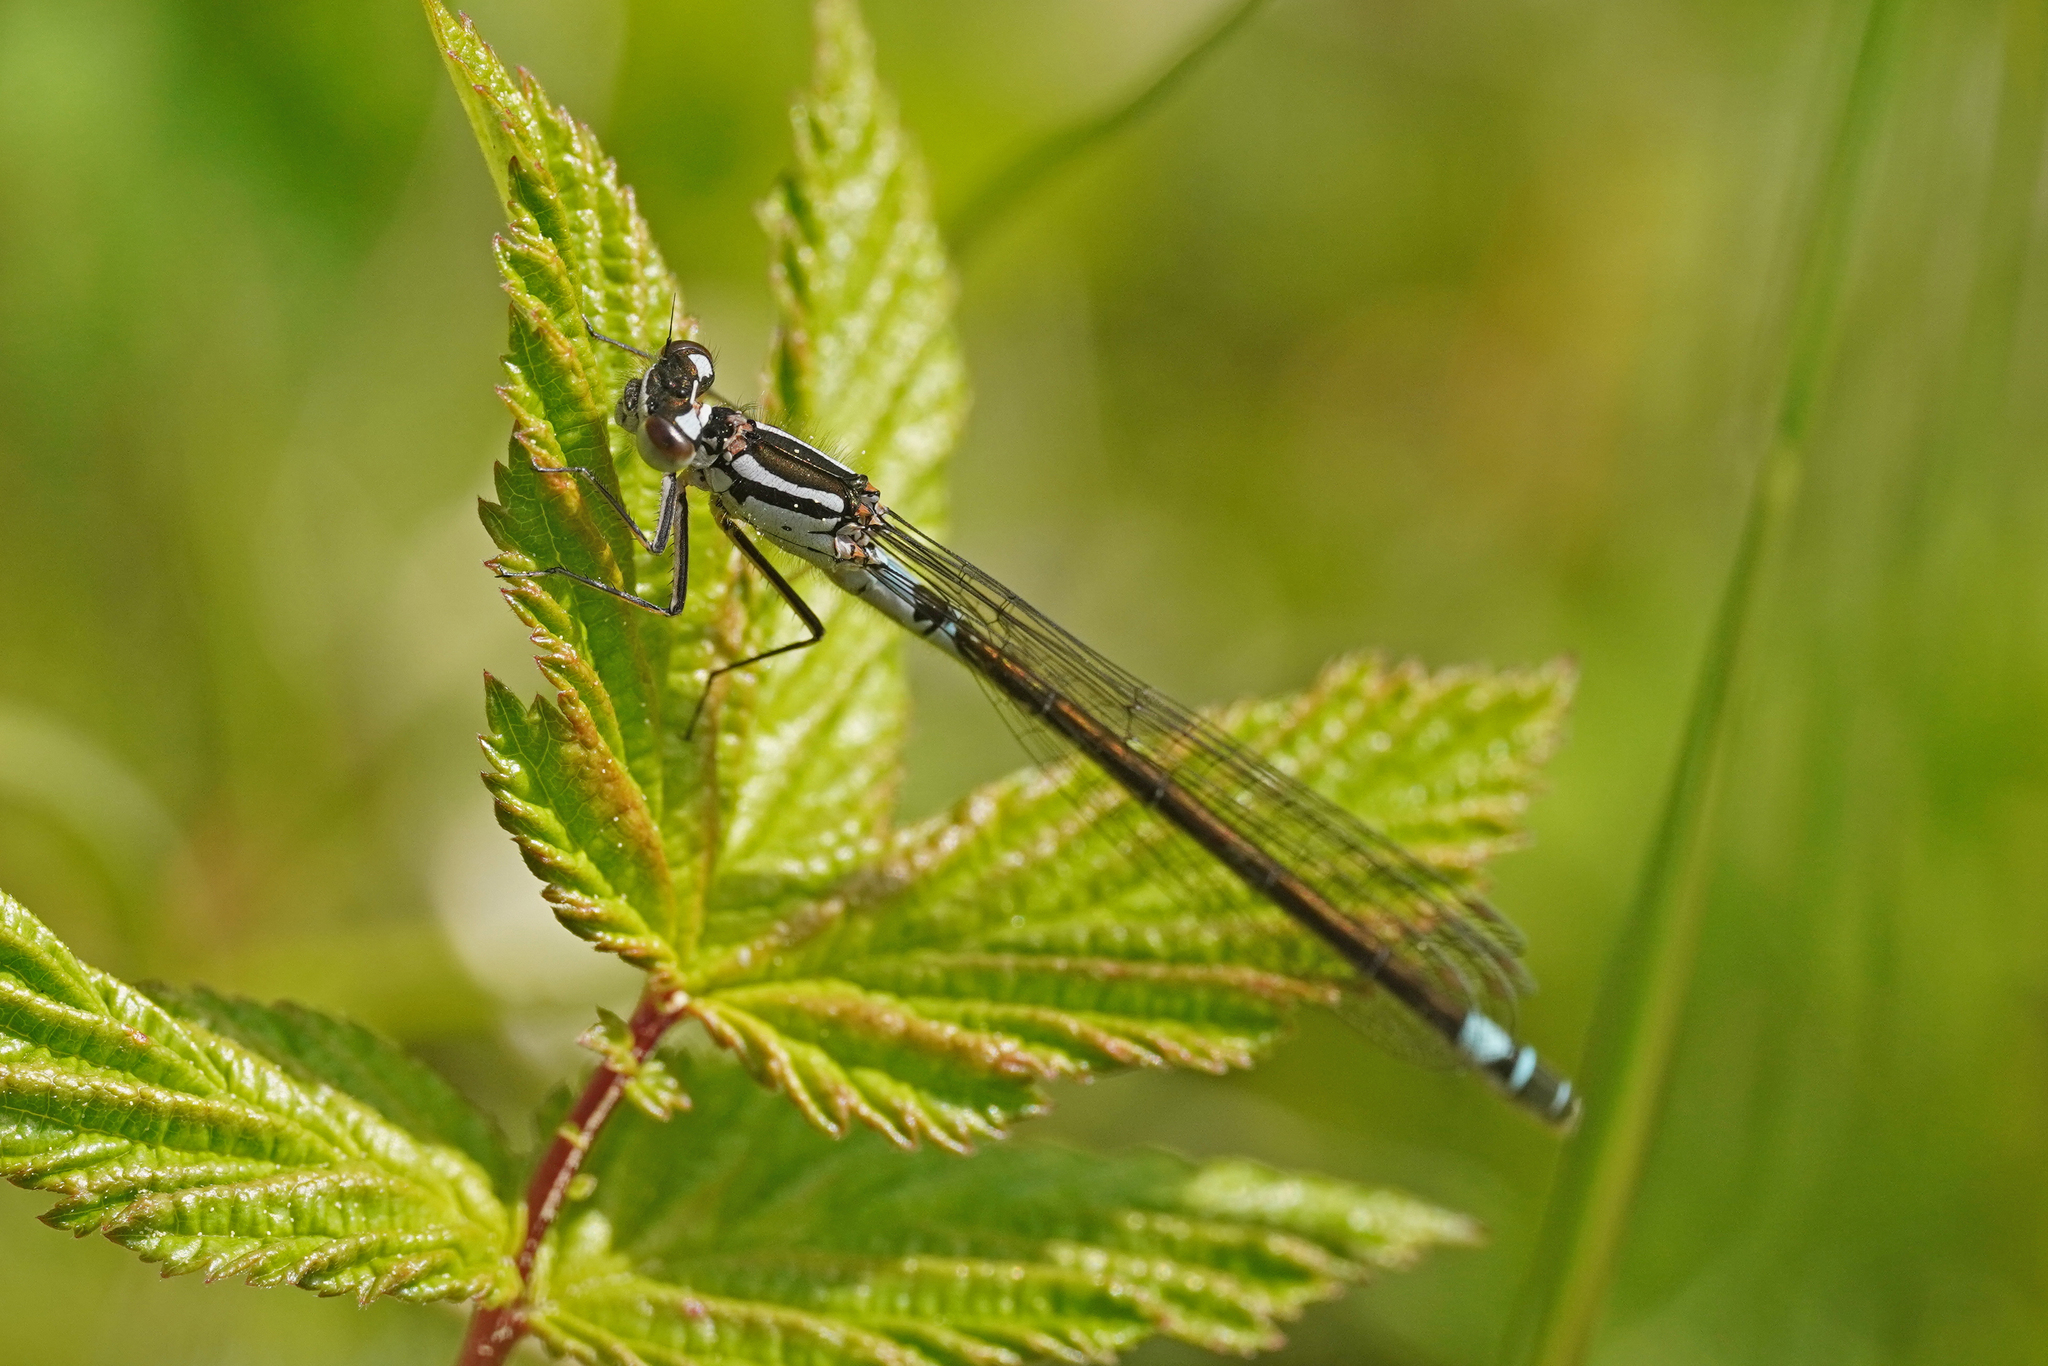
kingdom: Animalia
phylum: Arthropoda
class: Insecta
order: Odonata
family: Coenagrionidae
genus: Coenagrion
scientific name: Coenagrion armatum
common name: Dark bluet
